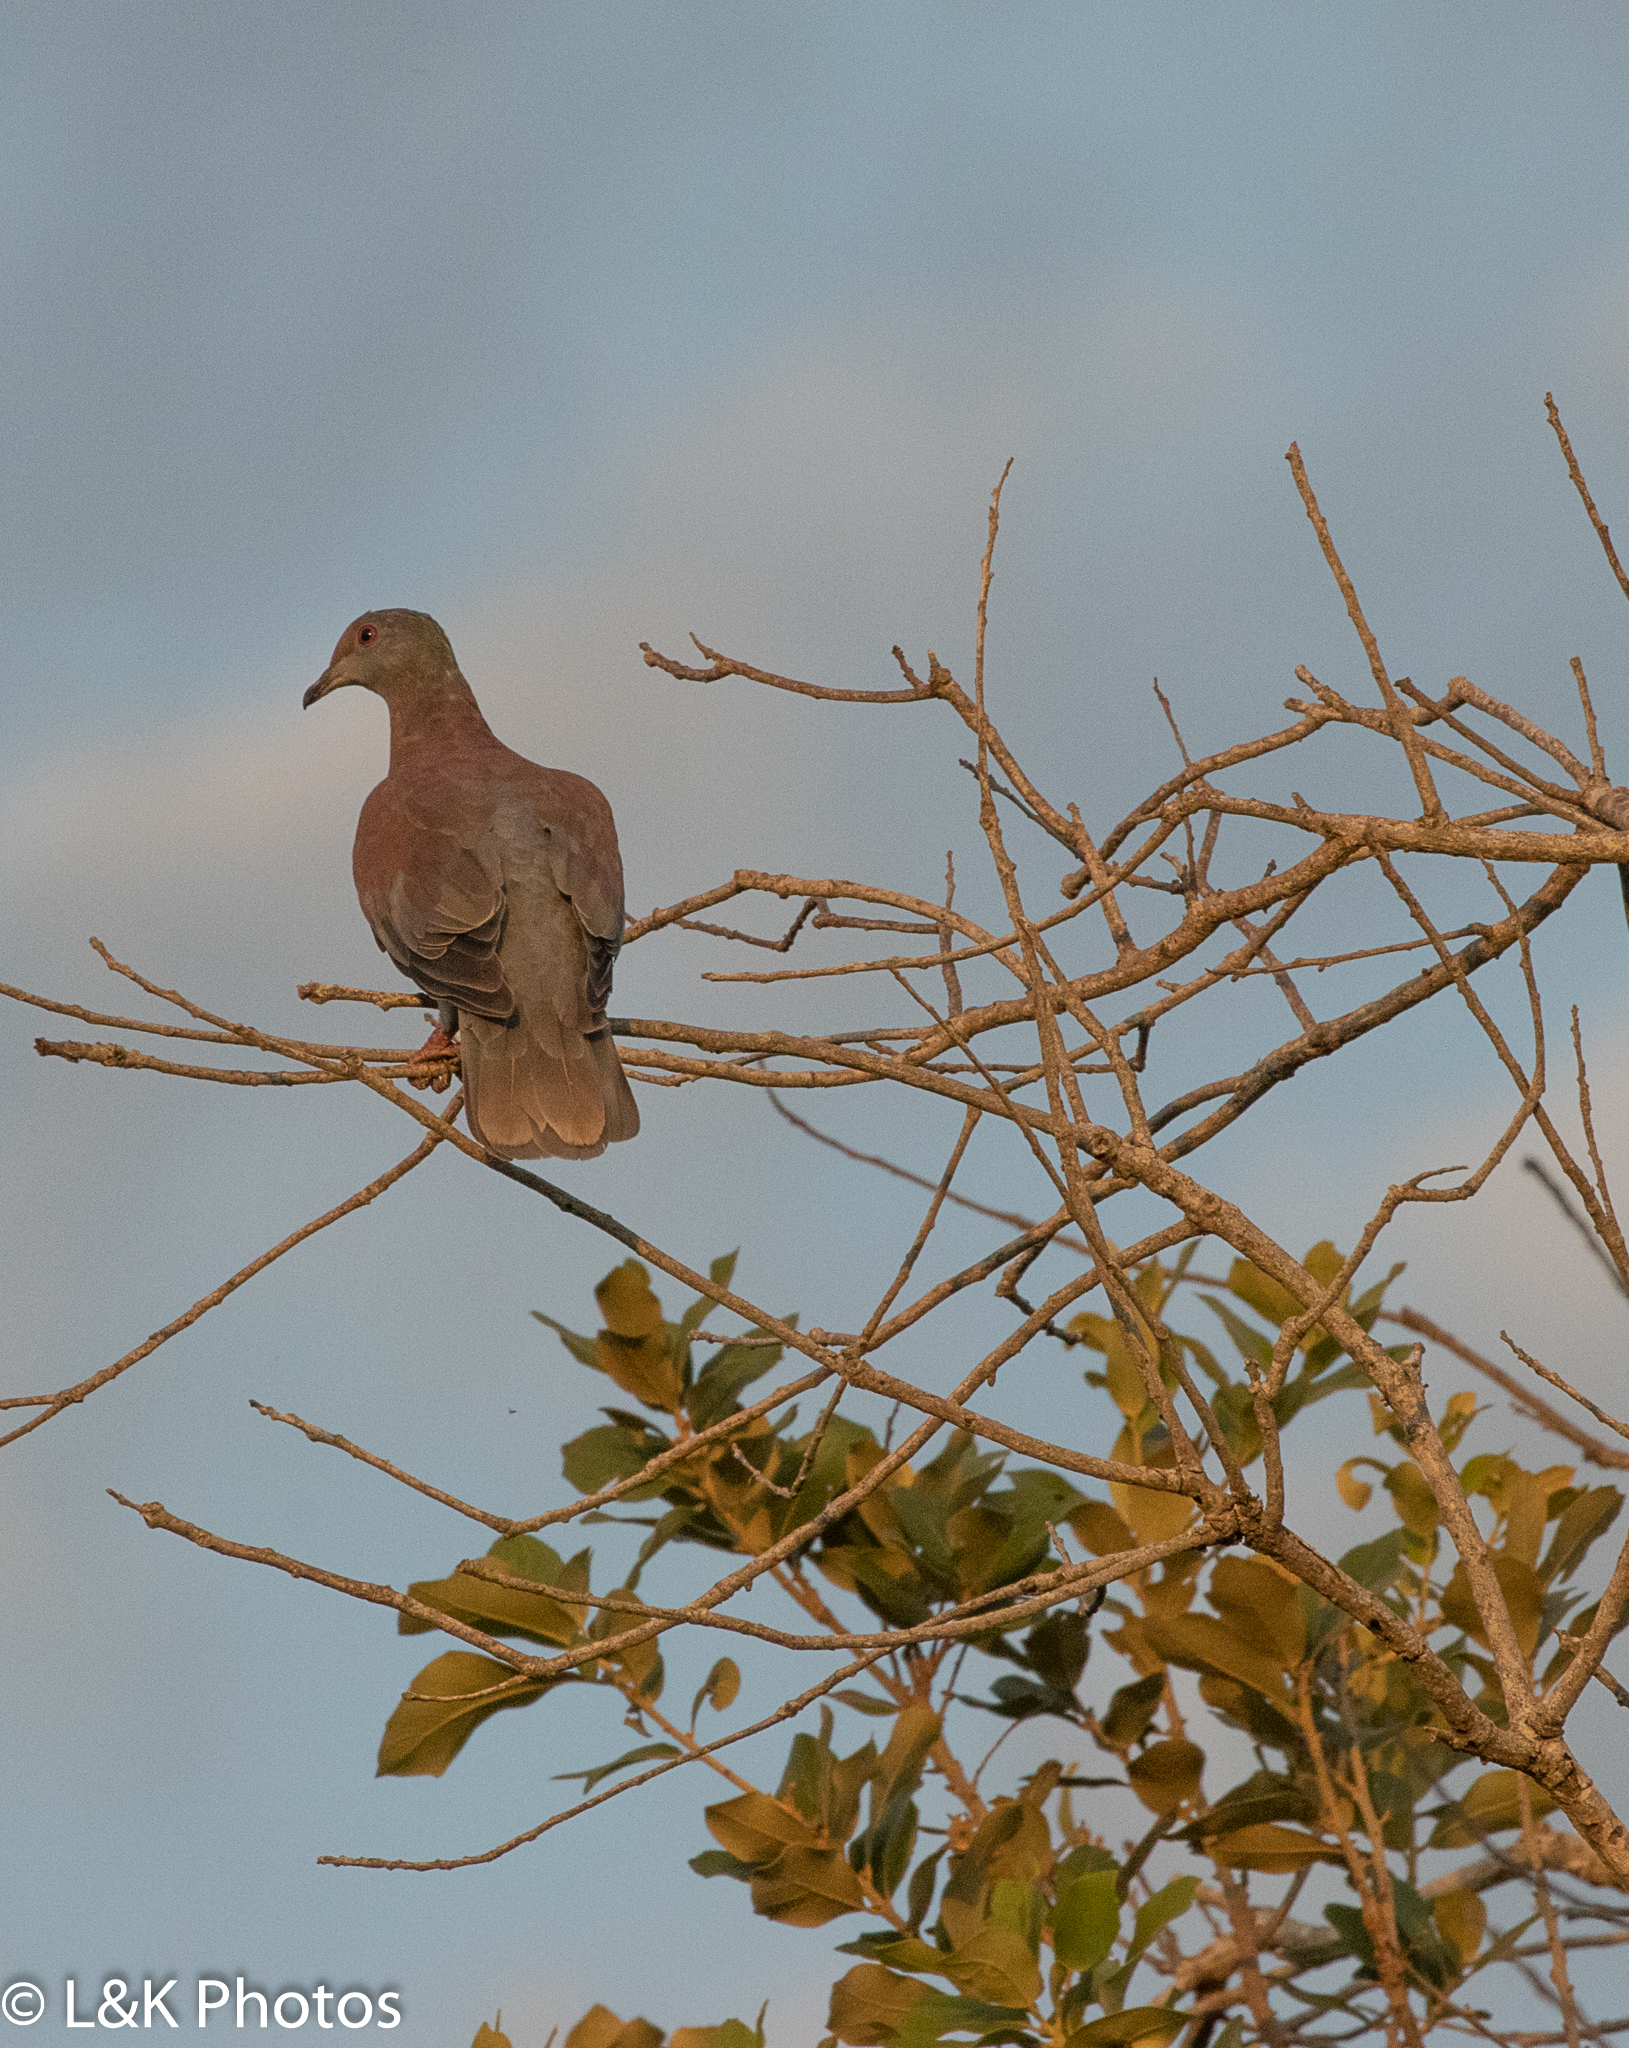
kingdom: Animalia
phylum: Chordata
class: Aves
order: Columbiformes
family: Columbidae
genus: Patagioenas
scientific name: Patagioenas cayennensis
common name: Pale-vented pigeon
